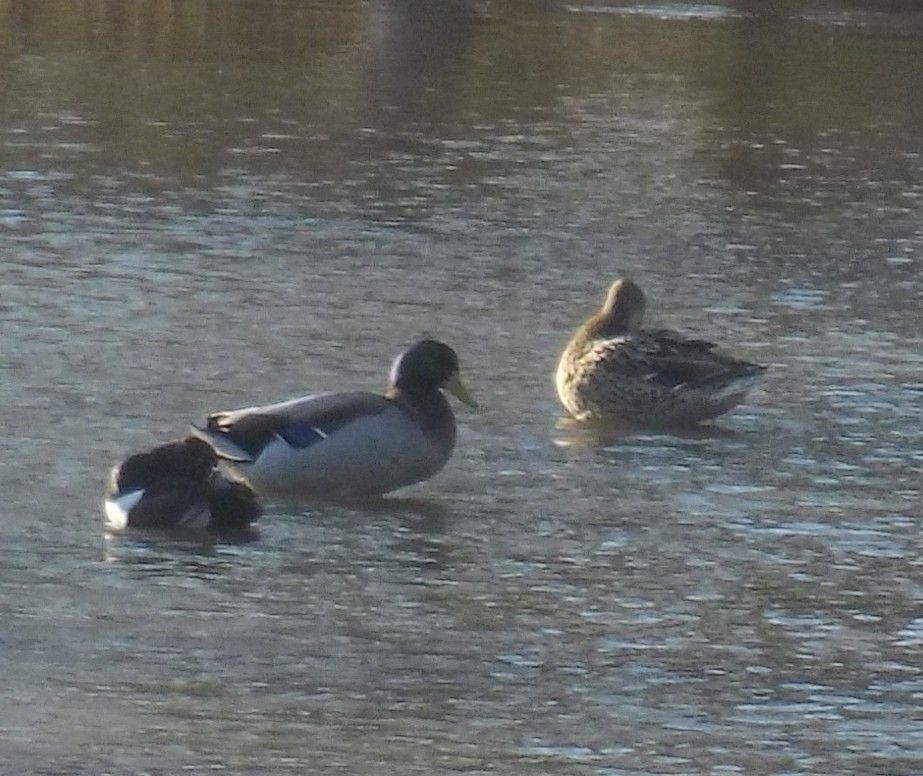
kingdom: Animalia
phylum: Chordata
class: Aves
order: Anseriformes
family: Anatidae
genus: Anas
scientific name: Anas platyrhynchos
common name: Mallard
